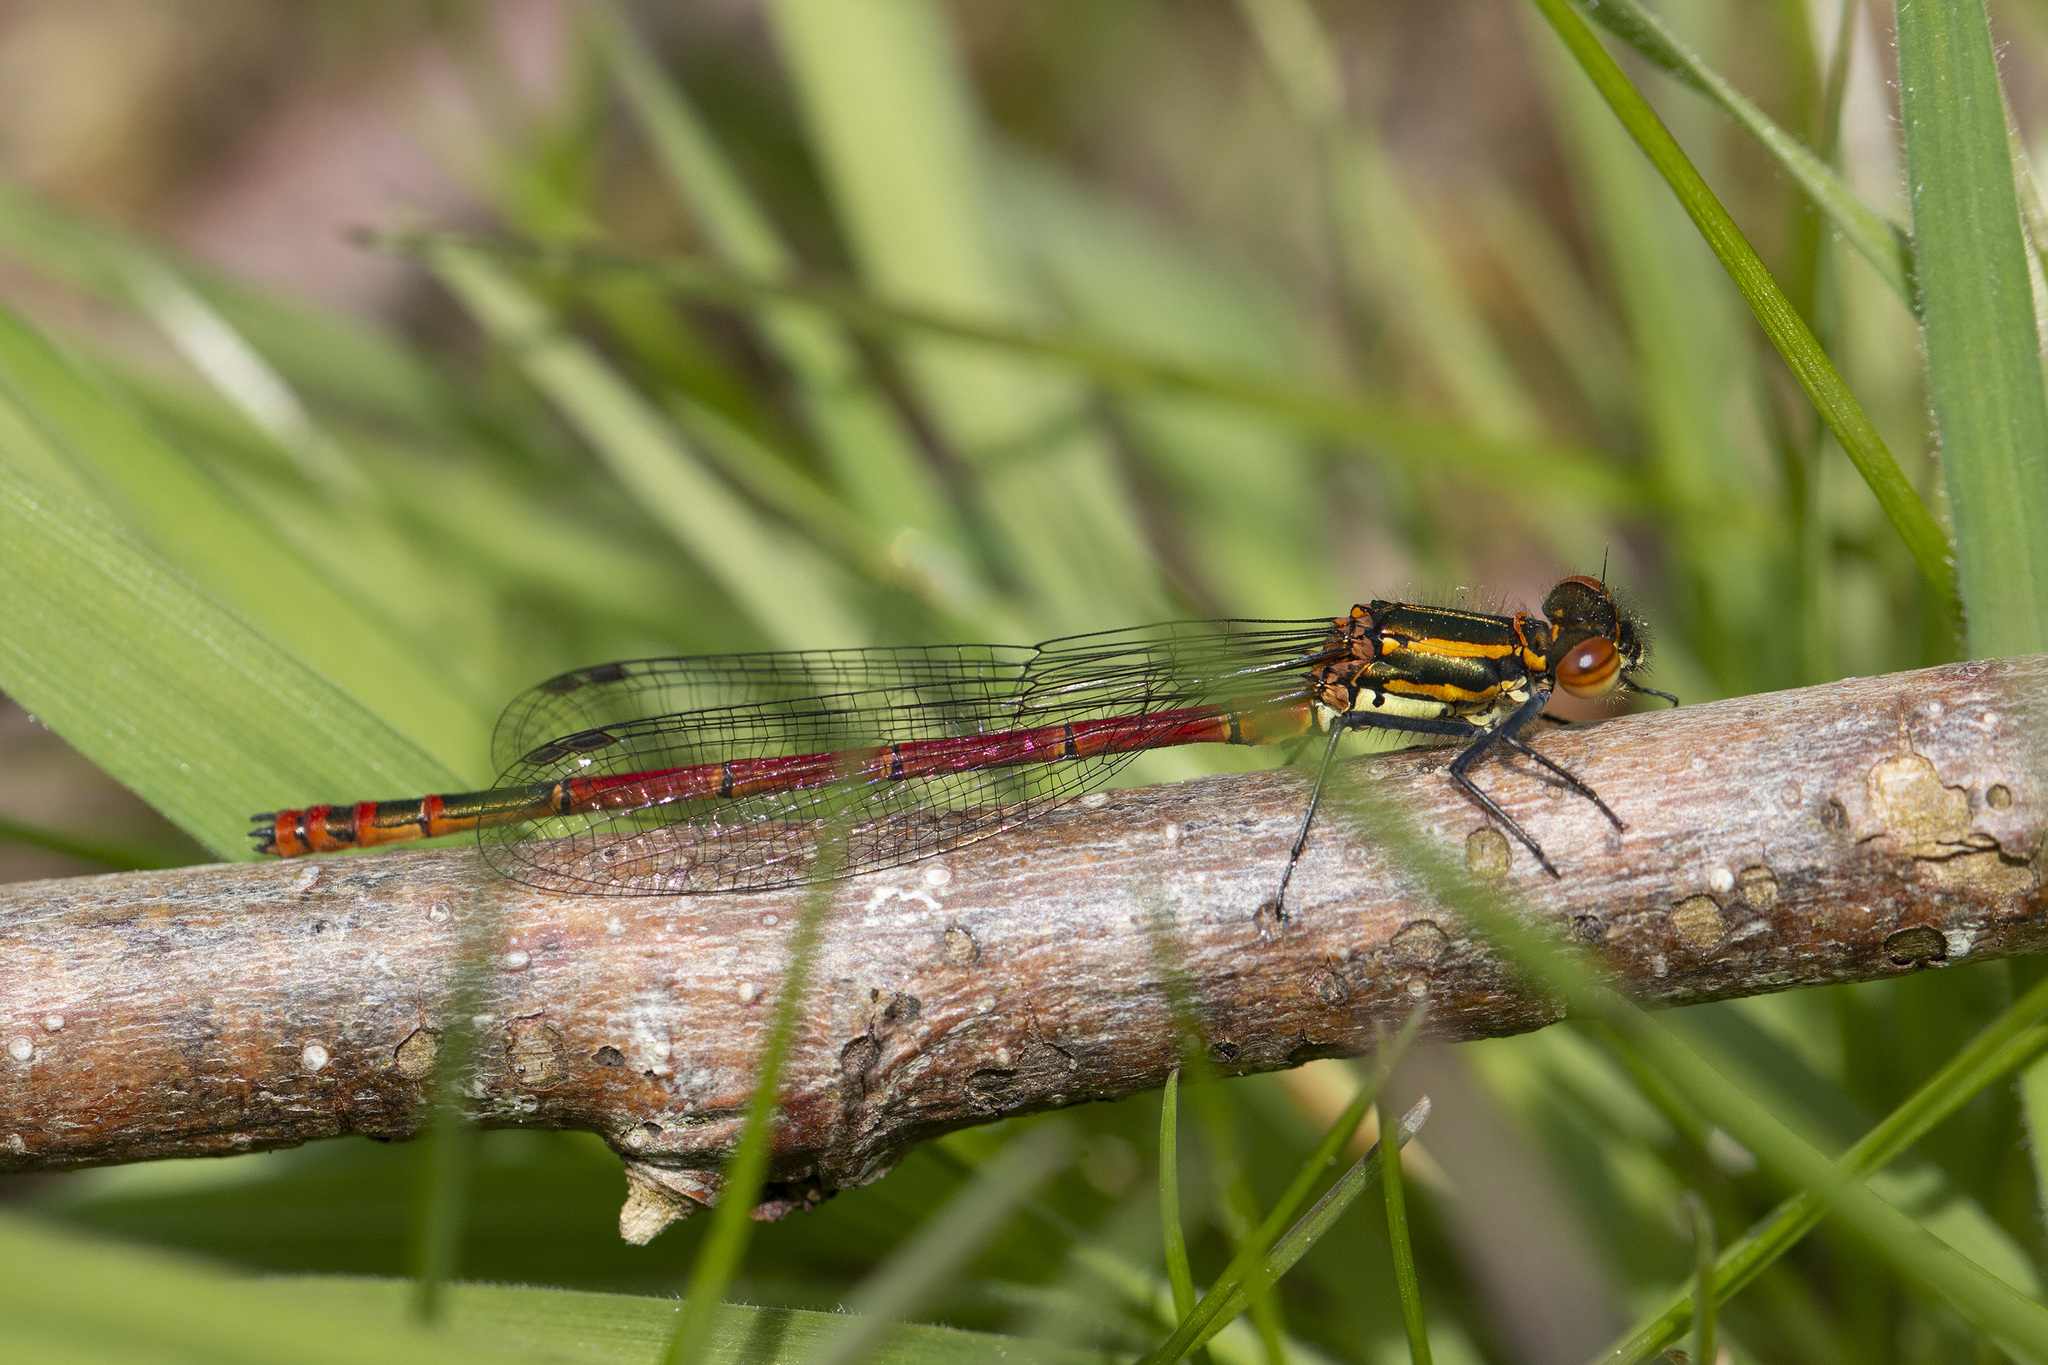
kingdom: Animalia
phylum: Arthropoda
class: Insecta
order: Odonata
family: Coenagrionidae
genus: Pyrrhosoma
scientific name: Pyrrhosoma nymphula
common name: Large red damsel
